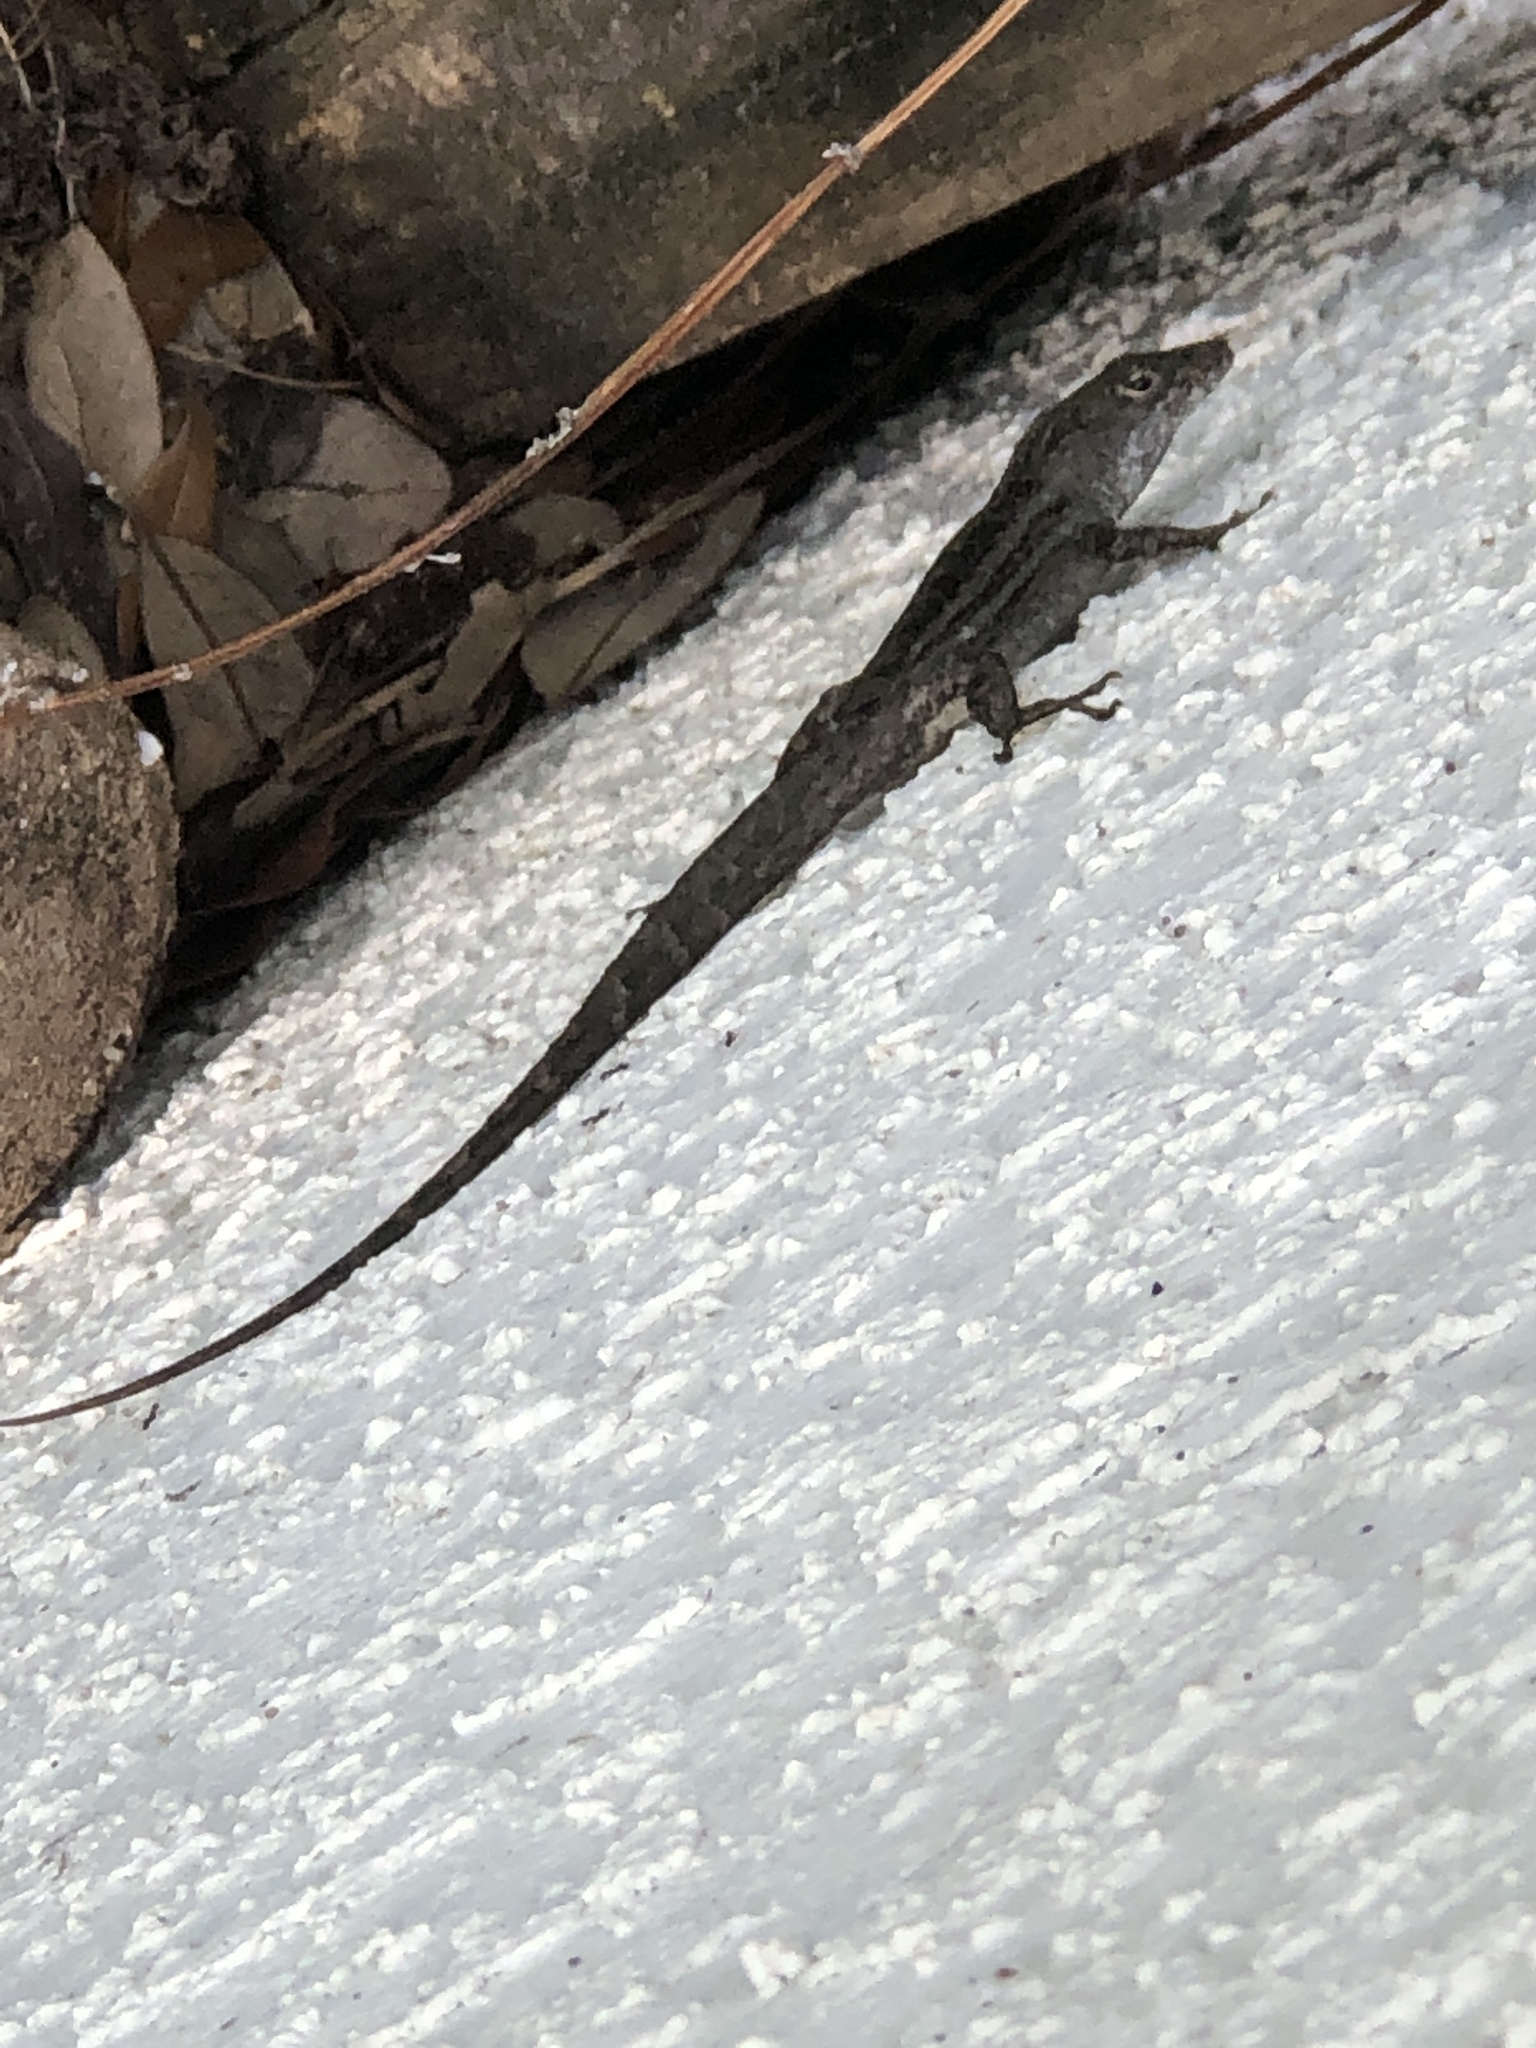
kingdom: Animalia
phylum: Chordata
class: Squamata
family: Dactyloidae
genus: Anolis
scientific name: Anolis sagrei
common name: Brown anole
